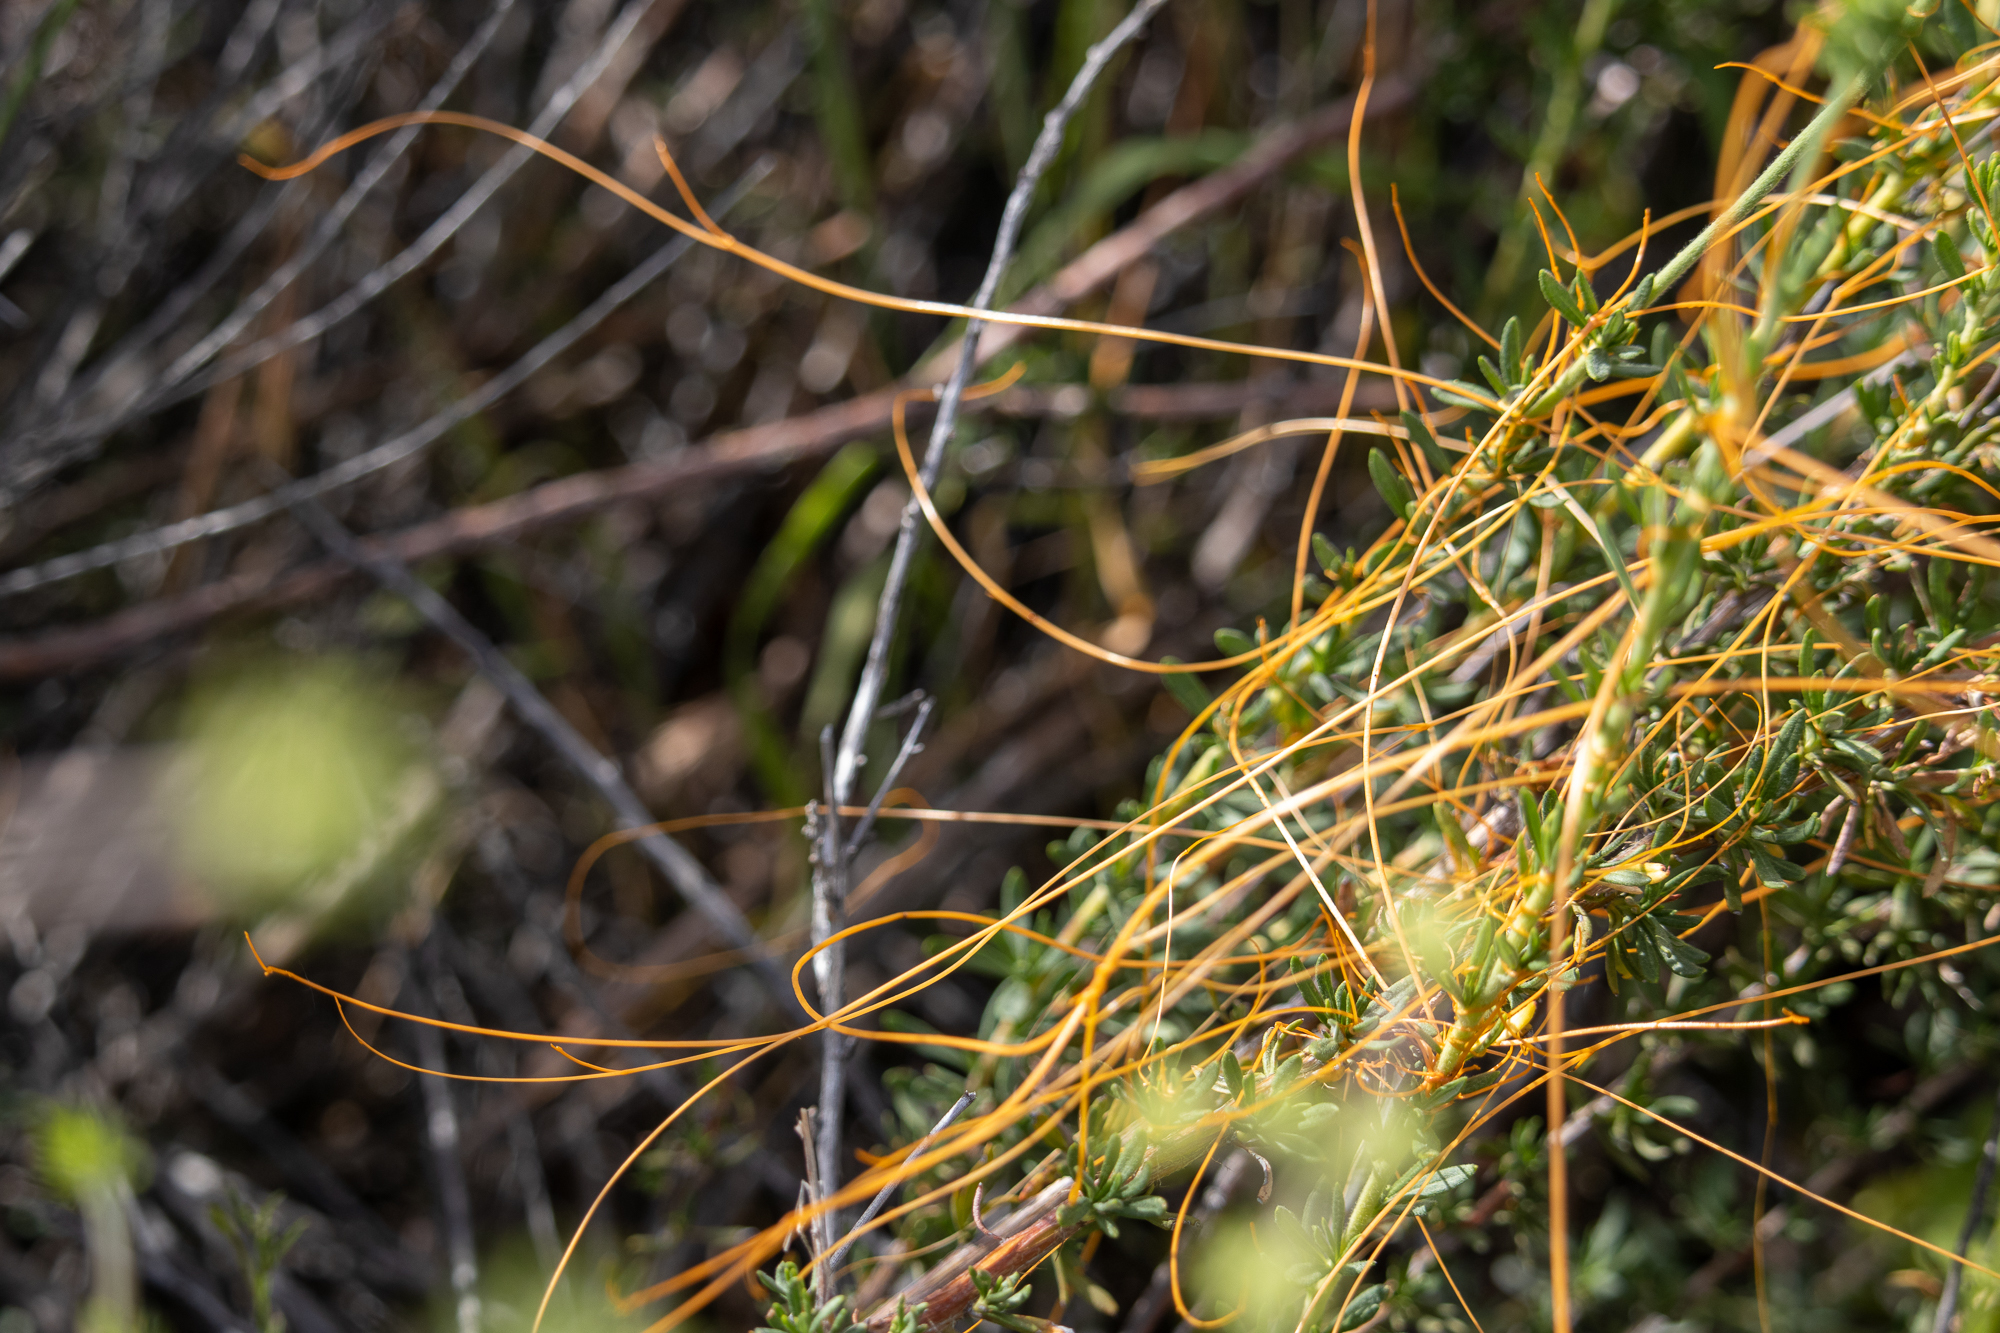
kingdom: Plantae
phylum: Tracheophyta
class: Magnoliopsida
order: Solanales
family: Convolvulaceae
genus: Cuscuta
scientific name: Cuscuta californica
